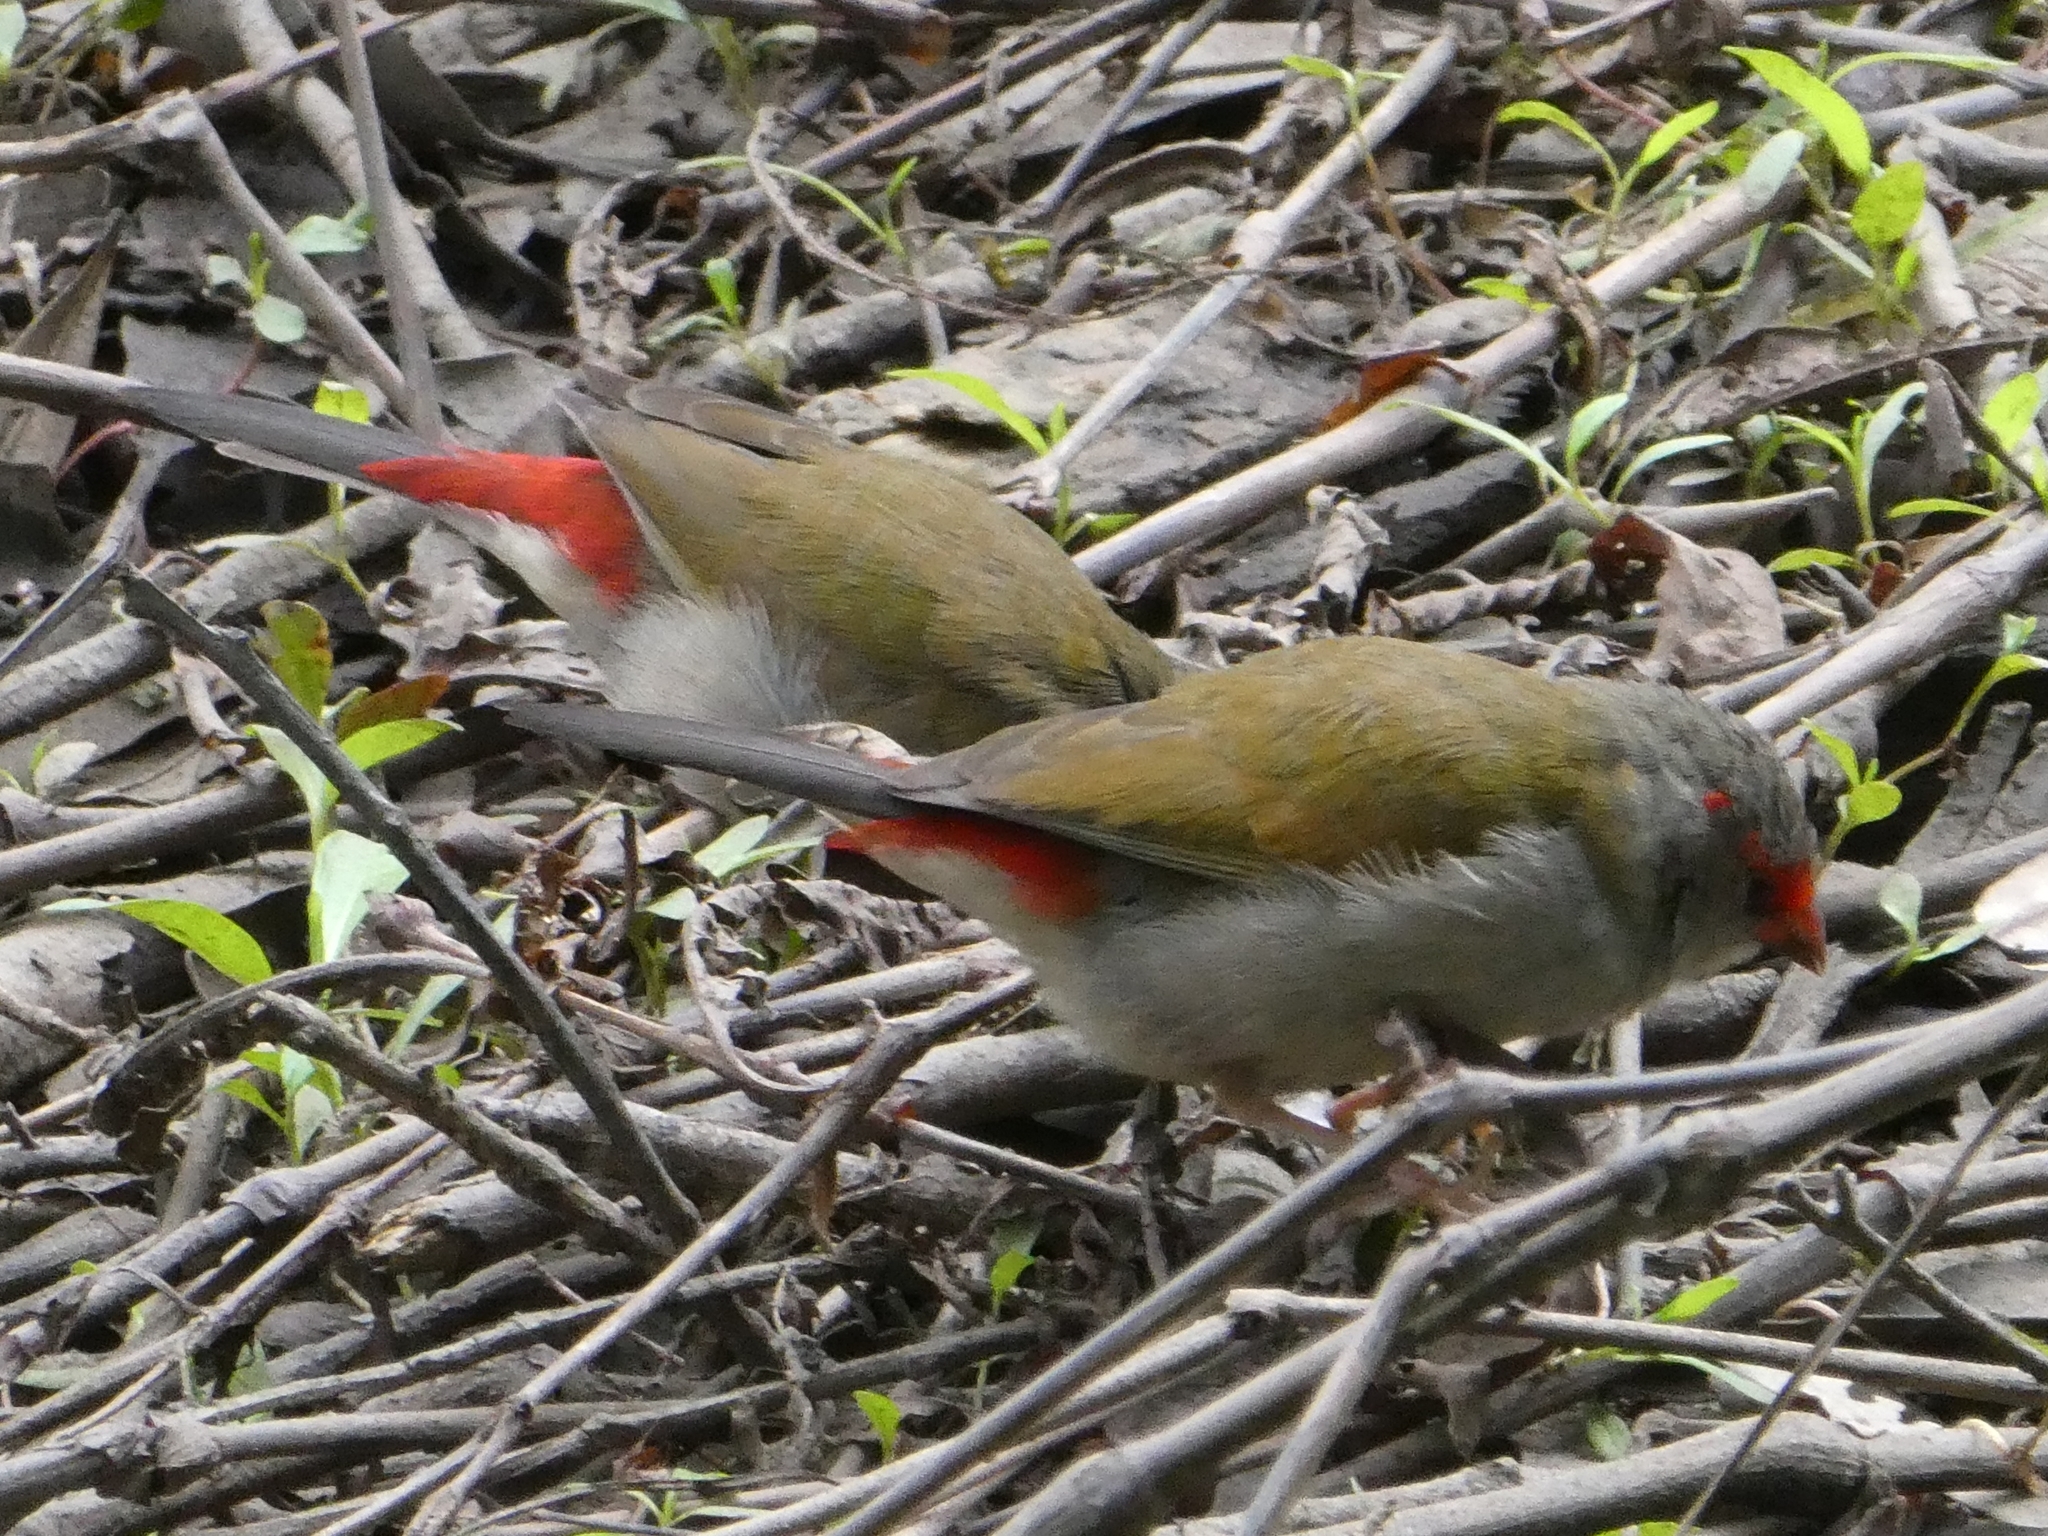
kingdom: Animalia
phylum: Chordata
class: Aves
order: Passeriformes
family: Estrildidae
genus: Neochmia
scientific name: Neochmia temporalis
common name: Red-browed finch
